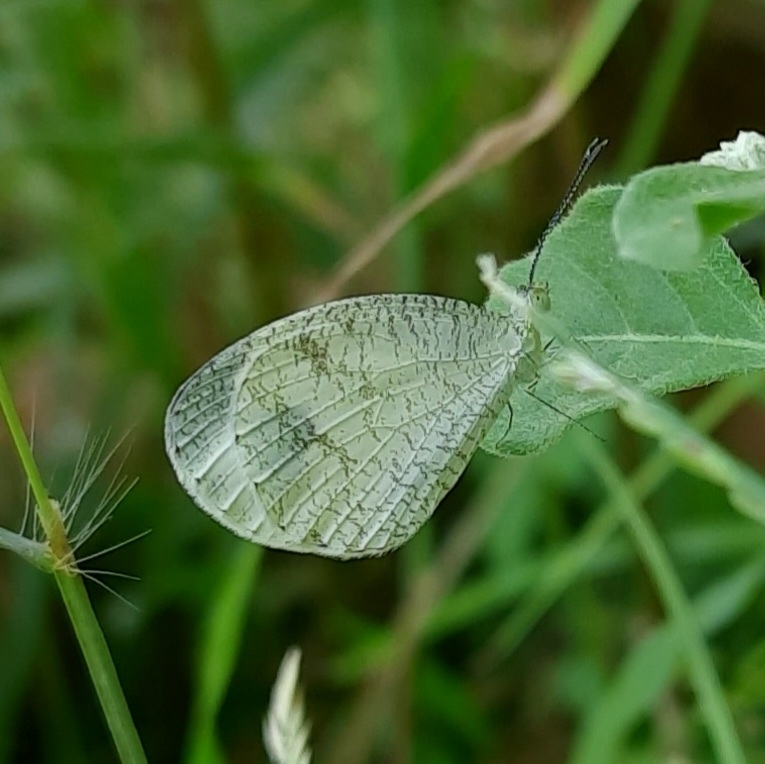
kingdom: Animalia
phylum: Arthropoda
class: Insecta
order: Lepidoptera
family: Pieridae
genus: Leptosia
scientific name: Leptosia nina
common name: Psyche
